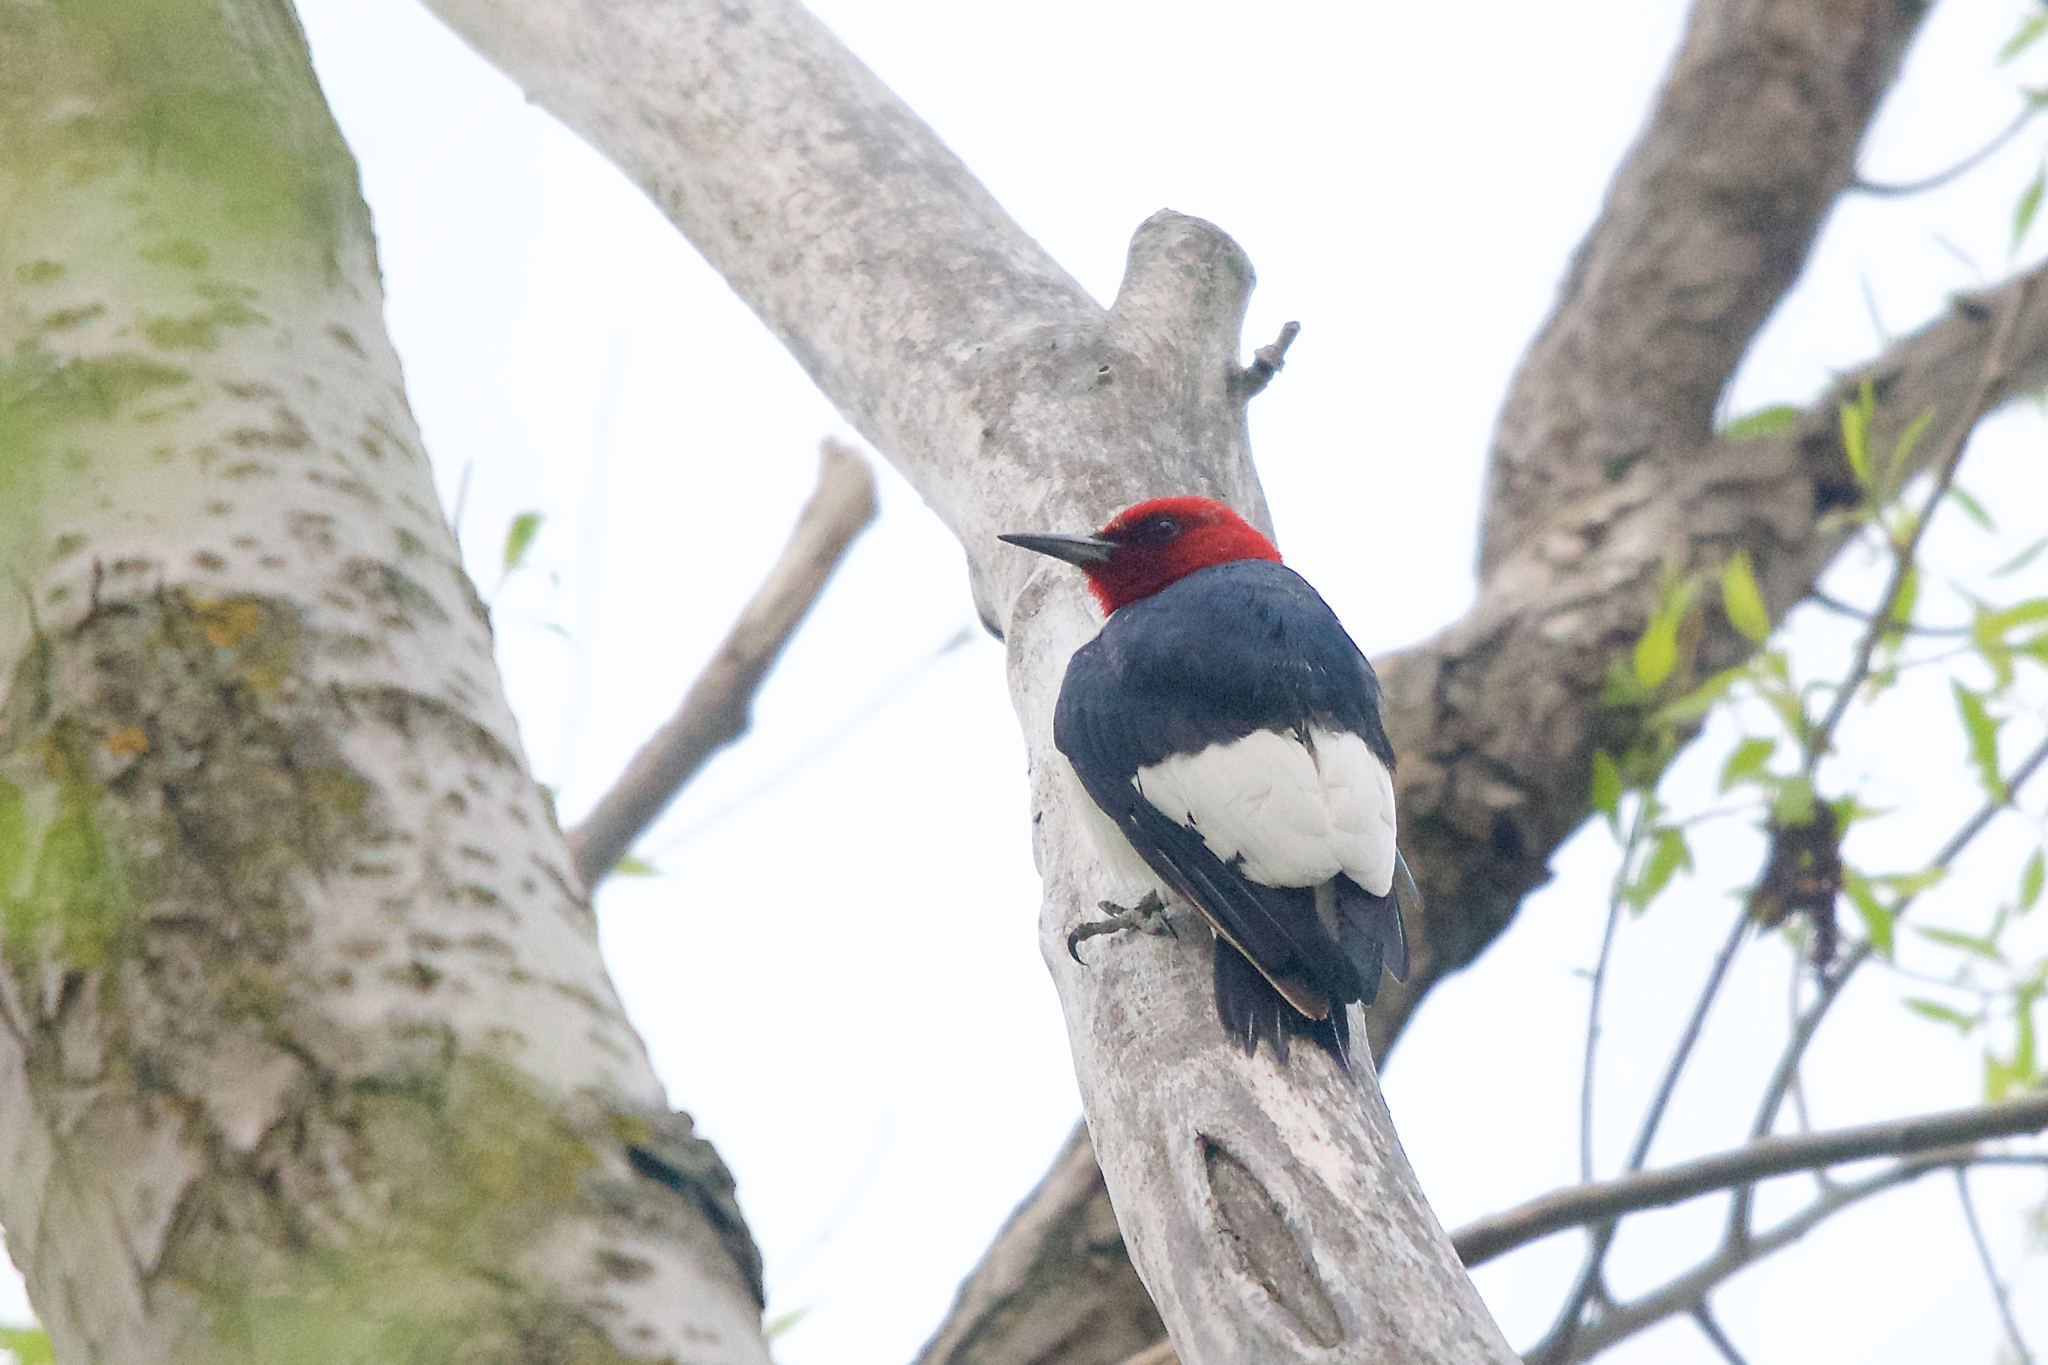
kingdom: Animalia
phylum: Chordata
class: Aves
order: Piciformes
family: Picidae
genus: Melanerpes
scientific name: Melanerpes erythrocephalus
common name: Red-headed woodpecker
